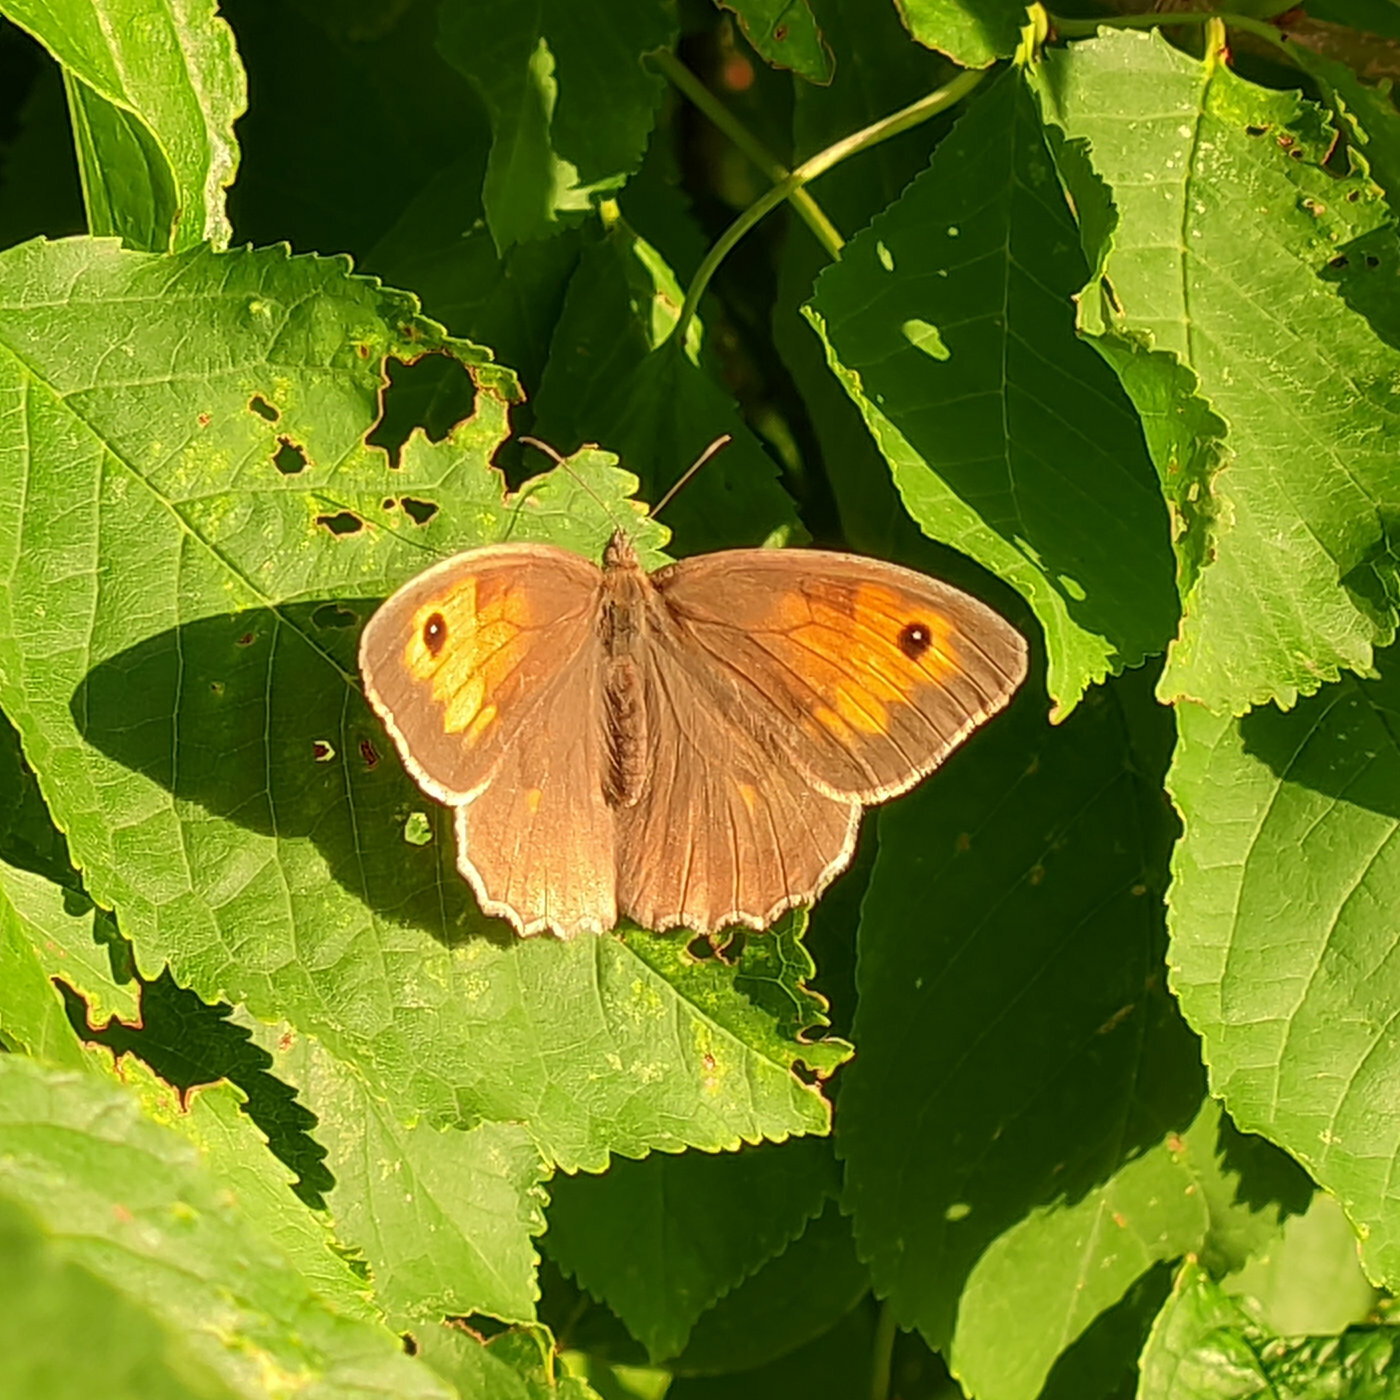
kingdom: Animalia
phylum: Arthropoda
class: Insecta
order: Lepidoptera
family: Nymphalidae
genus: Maniola
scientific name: Maniola jurtina
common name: Meadow brown
